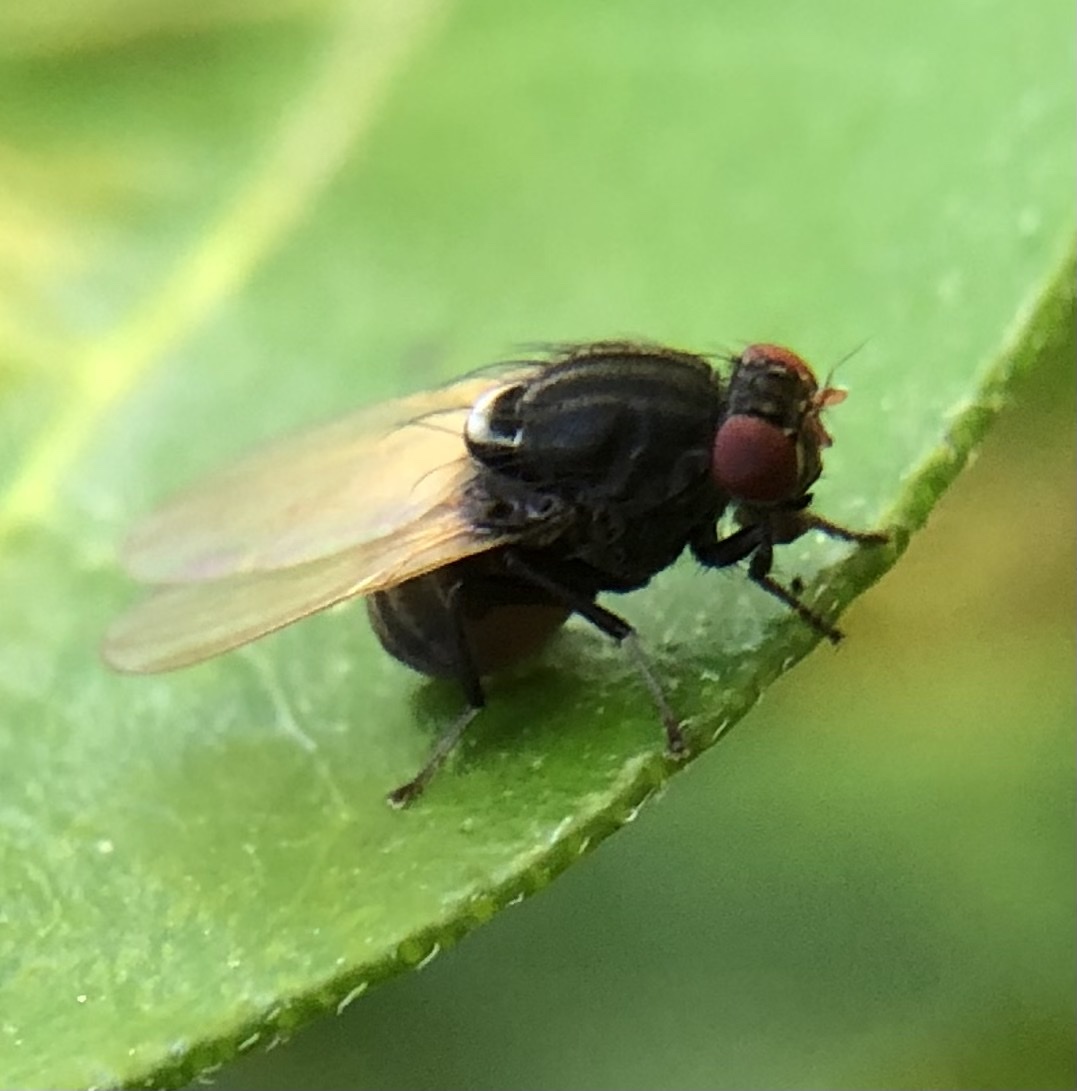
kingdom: Animalia
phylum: Arthropoda
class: Insecta
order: Diptera
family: Lauxaniidae
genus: Minettia
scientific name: Minettia longipennis
